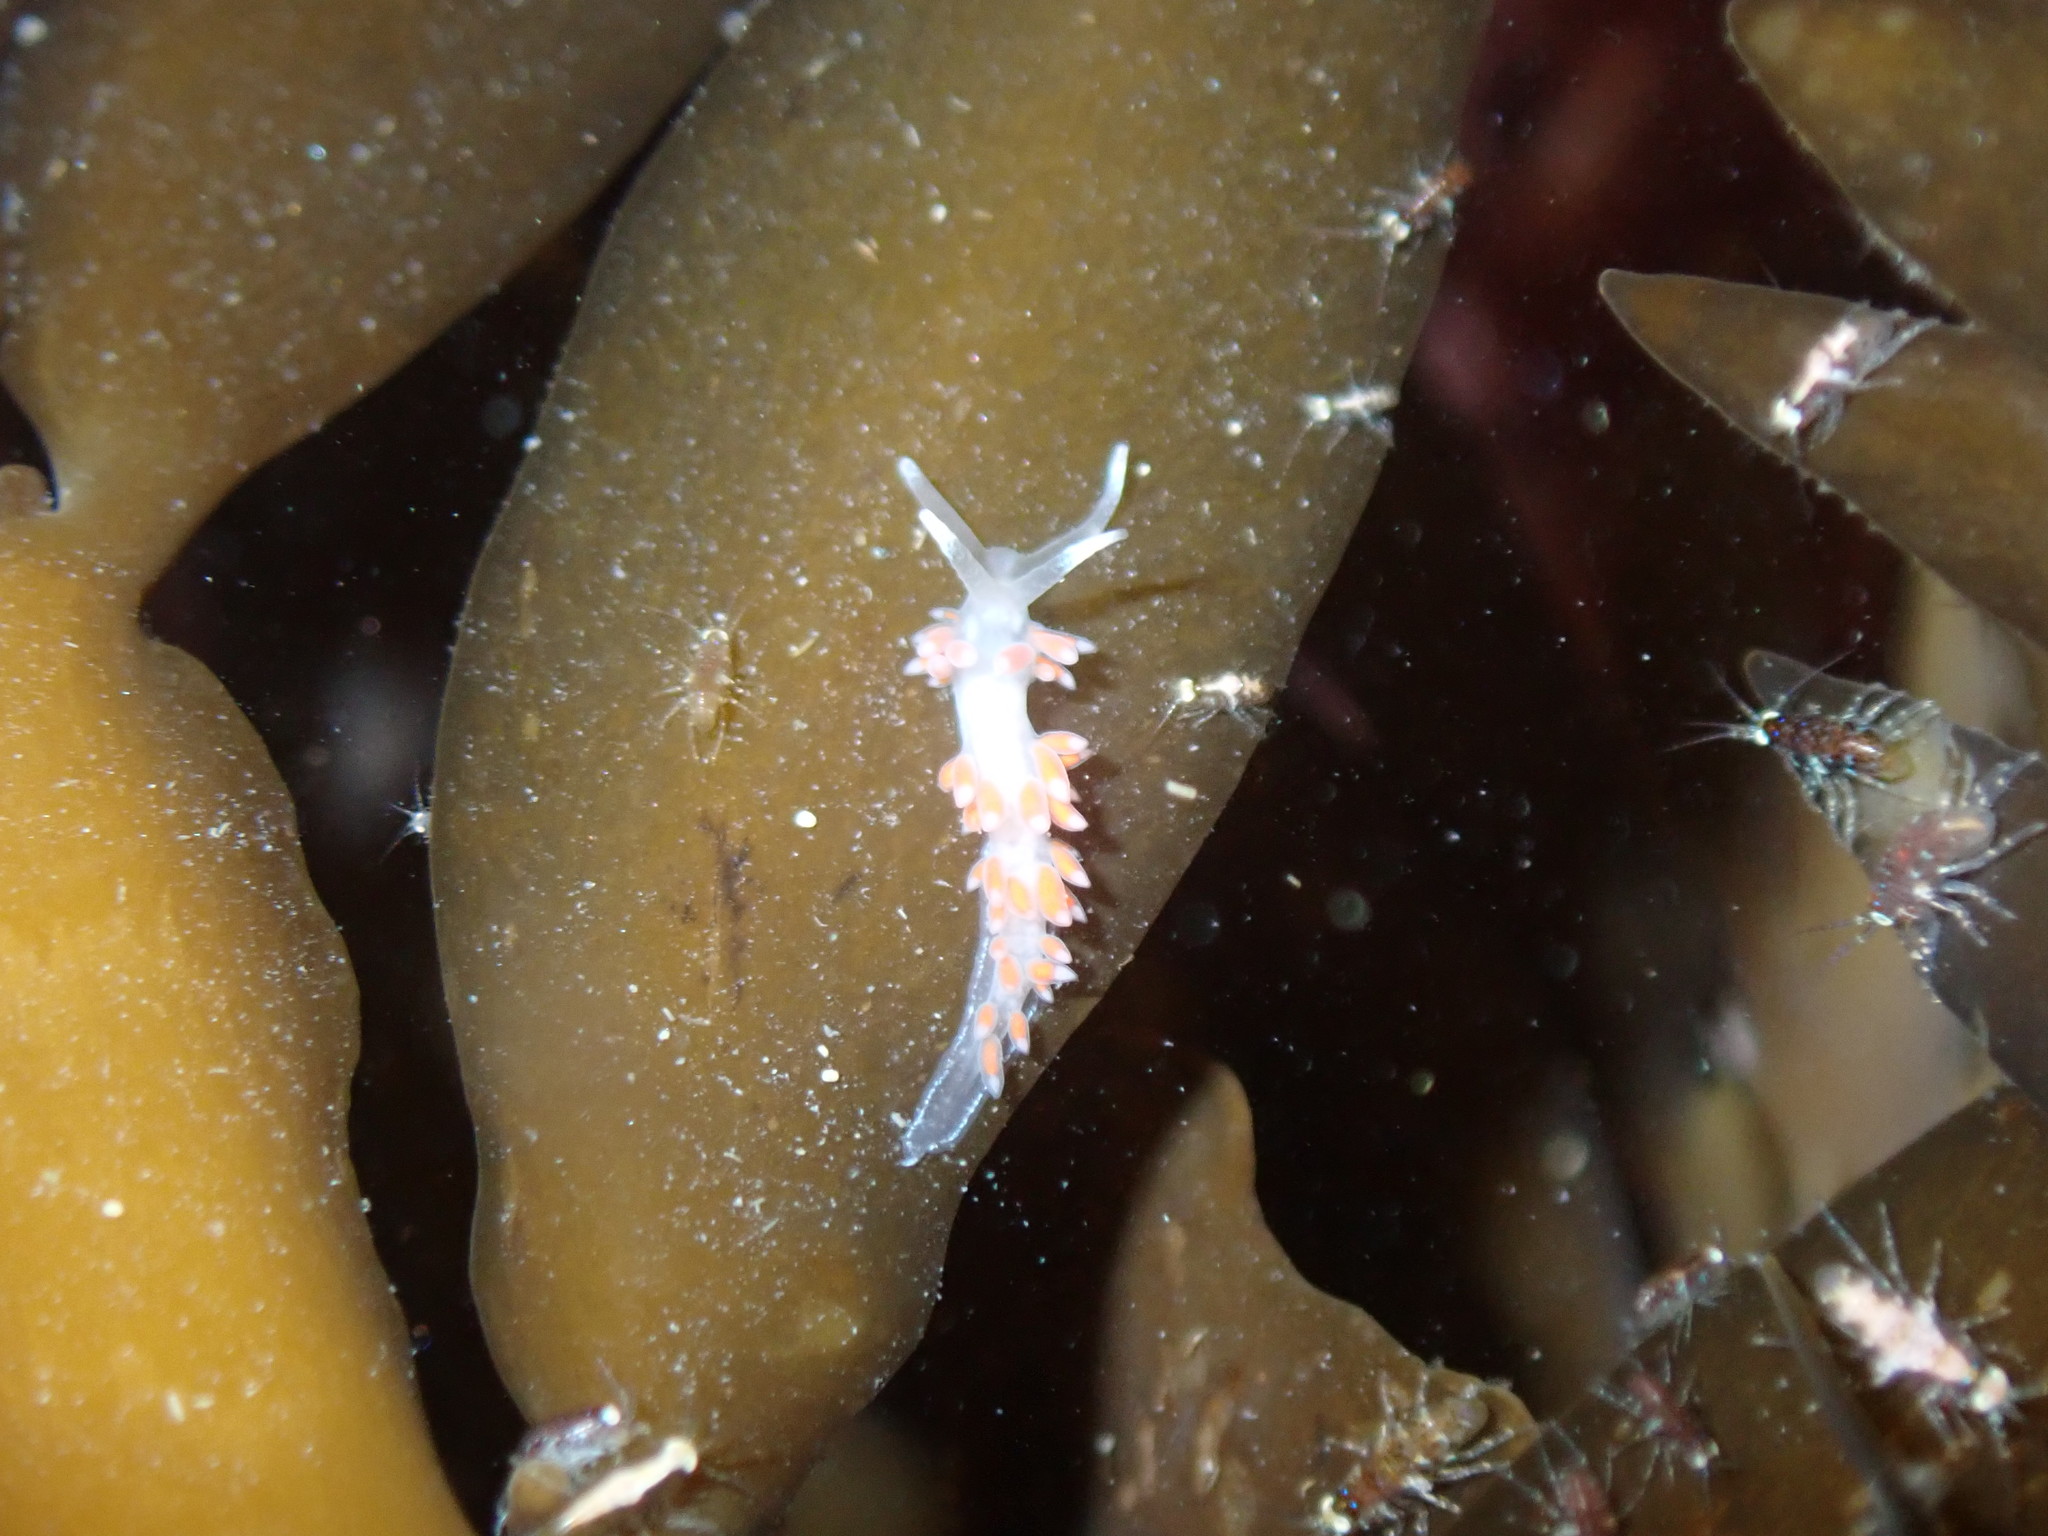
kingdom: Animalia
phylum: Mollusca
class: Gastropoda
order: Nudibranchia
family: Flabellinidae
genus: Coryphellina
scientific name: Coryphellina albomarginata
